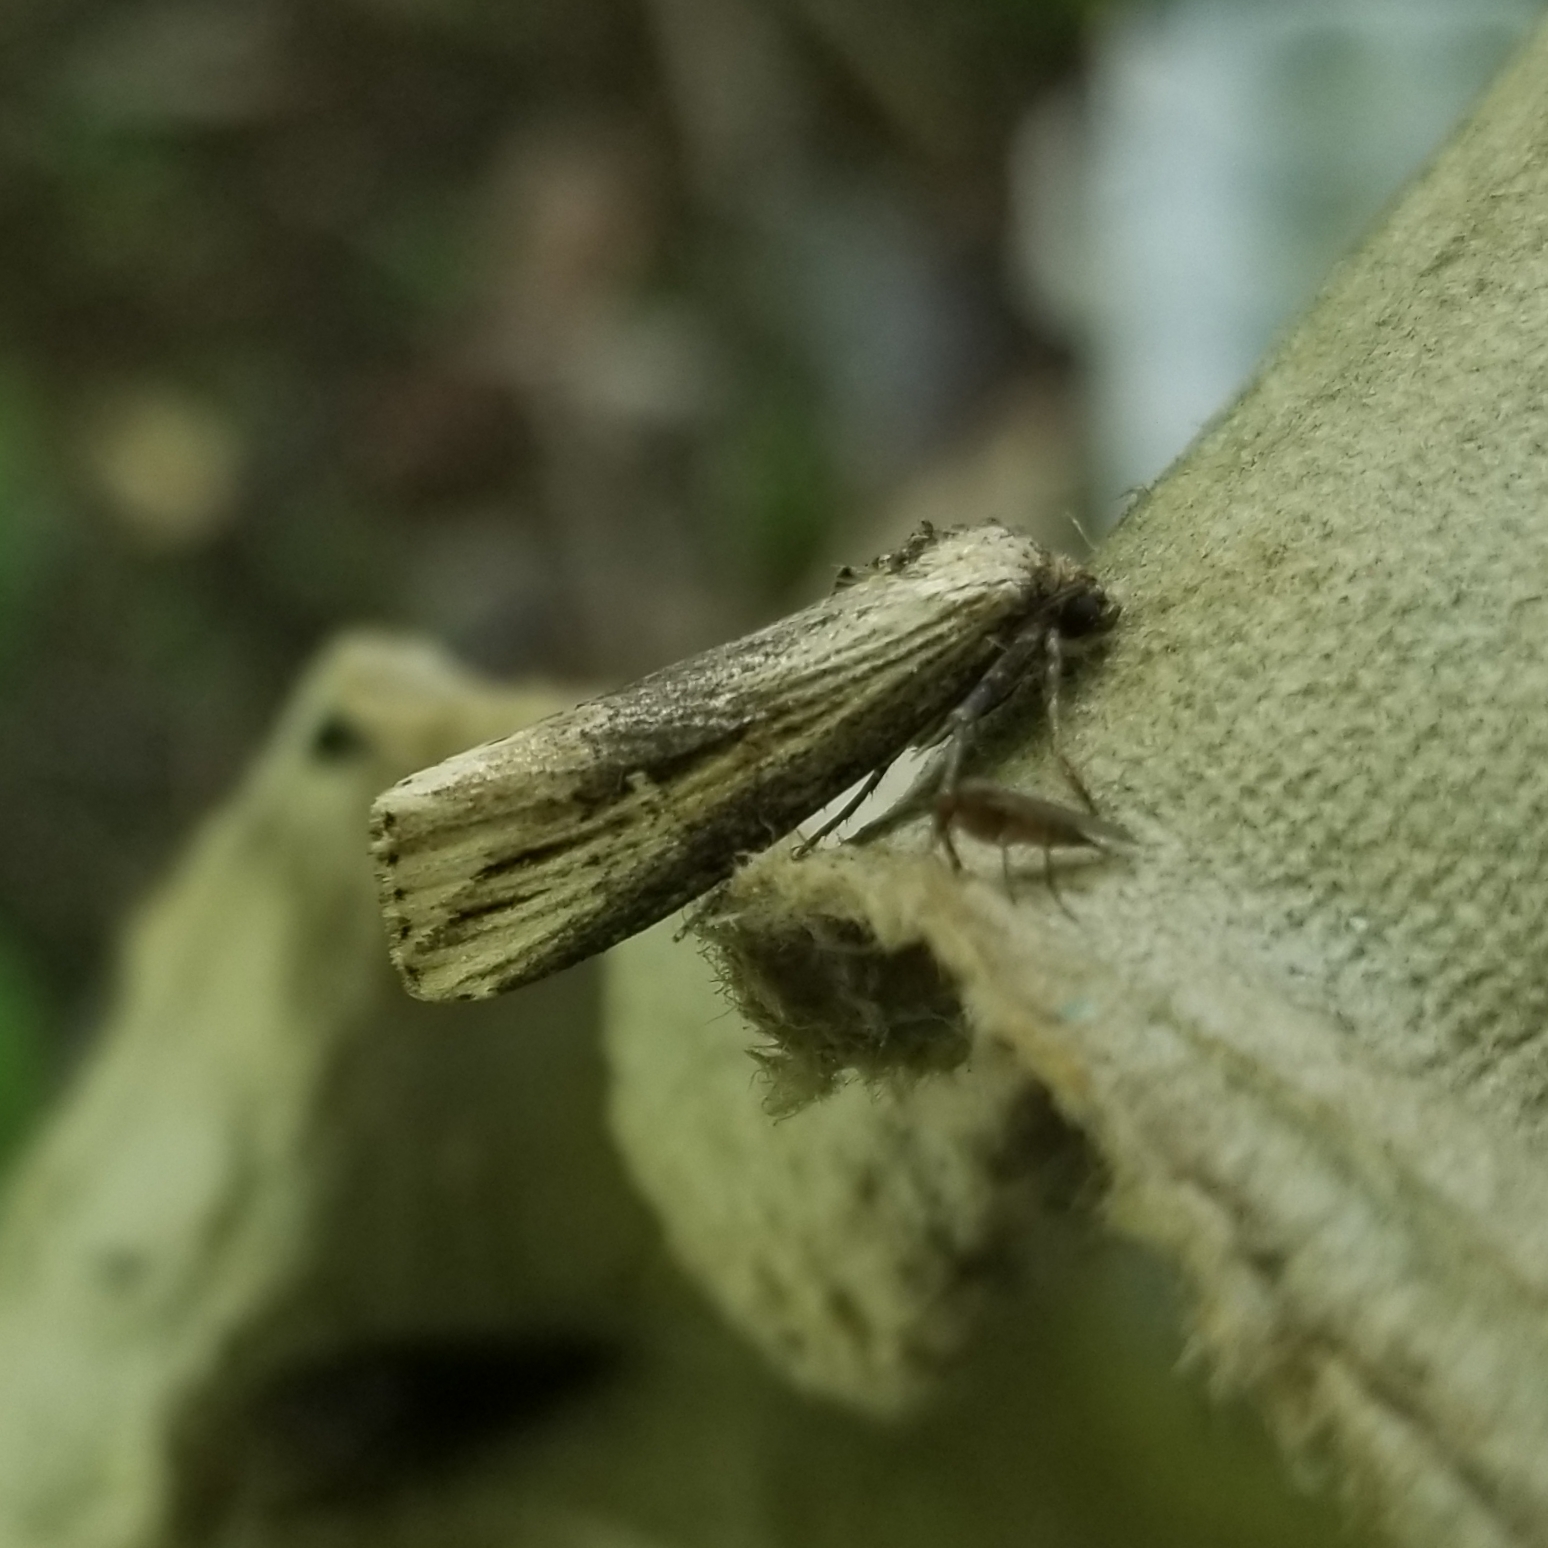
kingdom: Animalia
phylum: Arthropoda
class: Insecta
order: Lepidoptera
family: Noctuidae
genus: Crambodes
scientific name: Crambodes talidiformis
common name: Verbena moth
